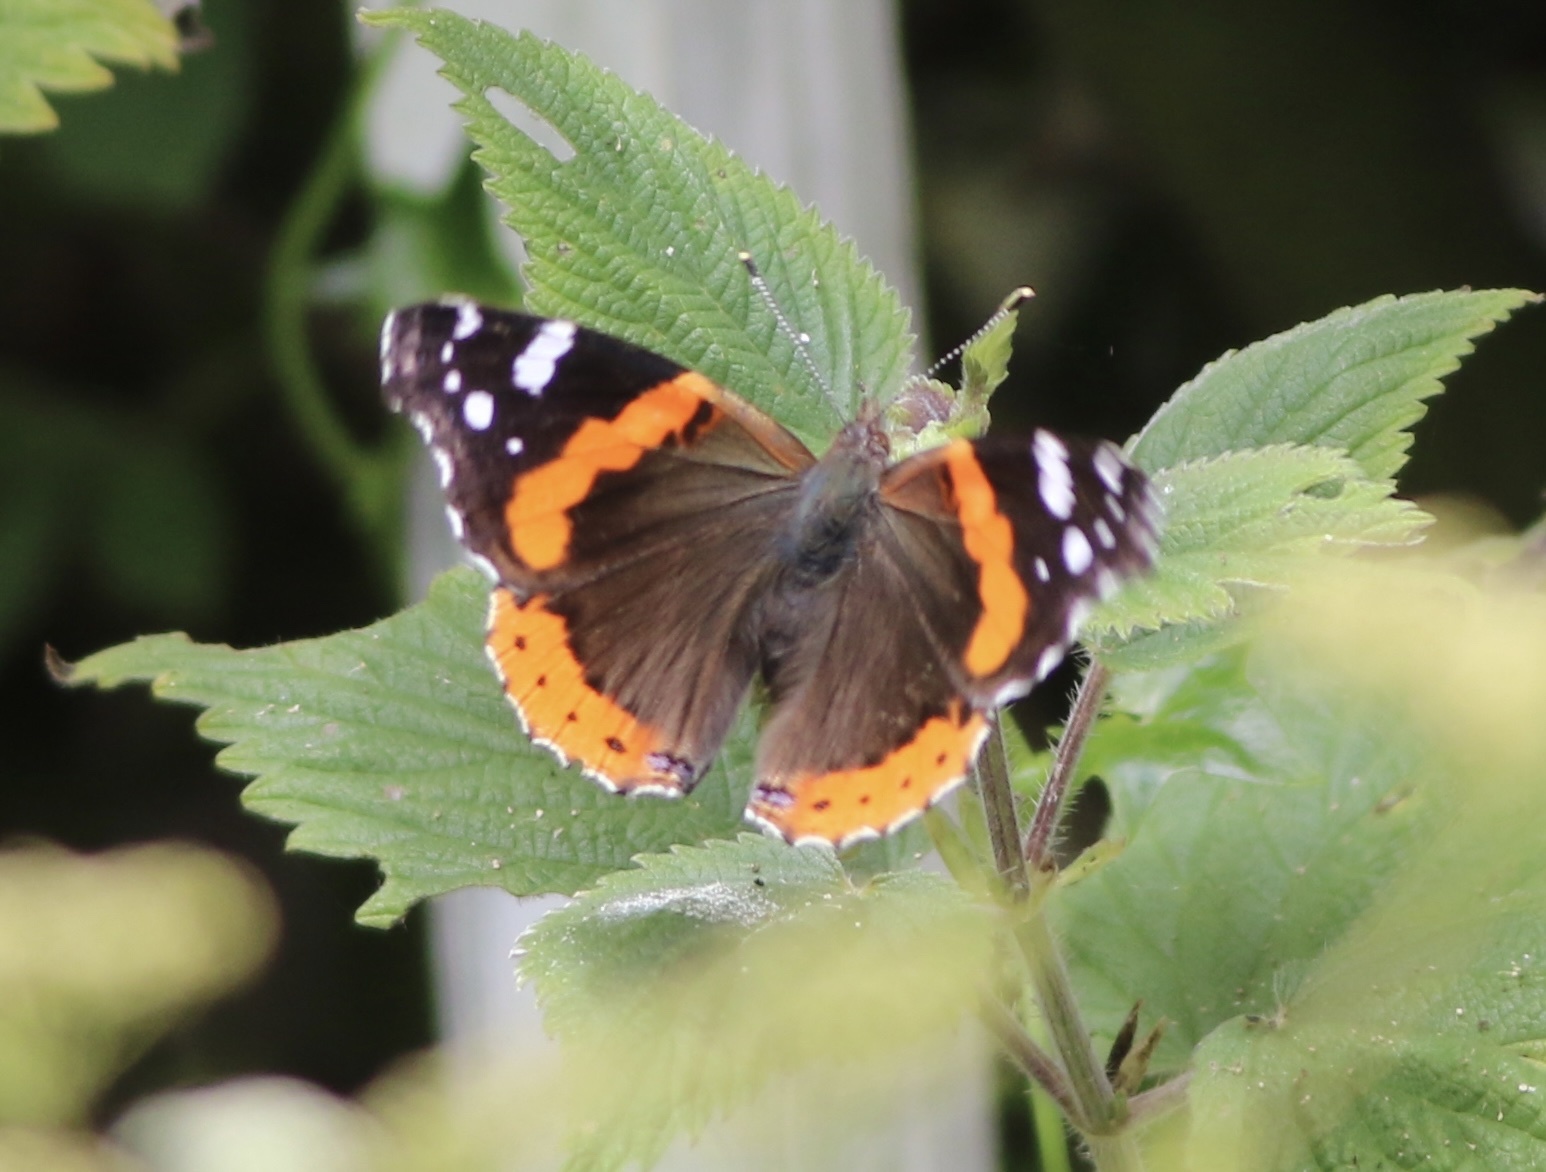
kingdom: Animalia
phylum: Arthropoda
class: Insecta
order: Lepidoptera
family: Nymphalidae
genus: Vanessa
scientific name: Vanessa atalanta
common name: Red admiral
